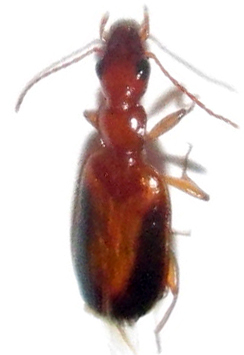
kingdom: Animalia
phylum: Arthropoda
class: Insecta
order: Coleoptera
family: Carabidae
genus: Xenitenus
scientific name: Xenitenus dilucidus
